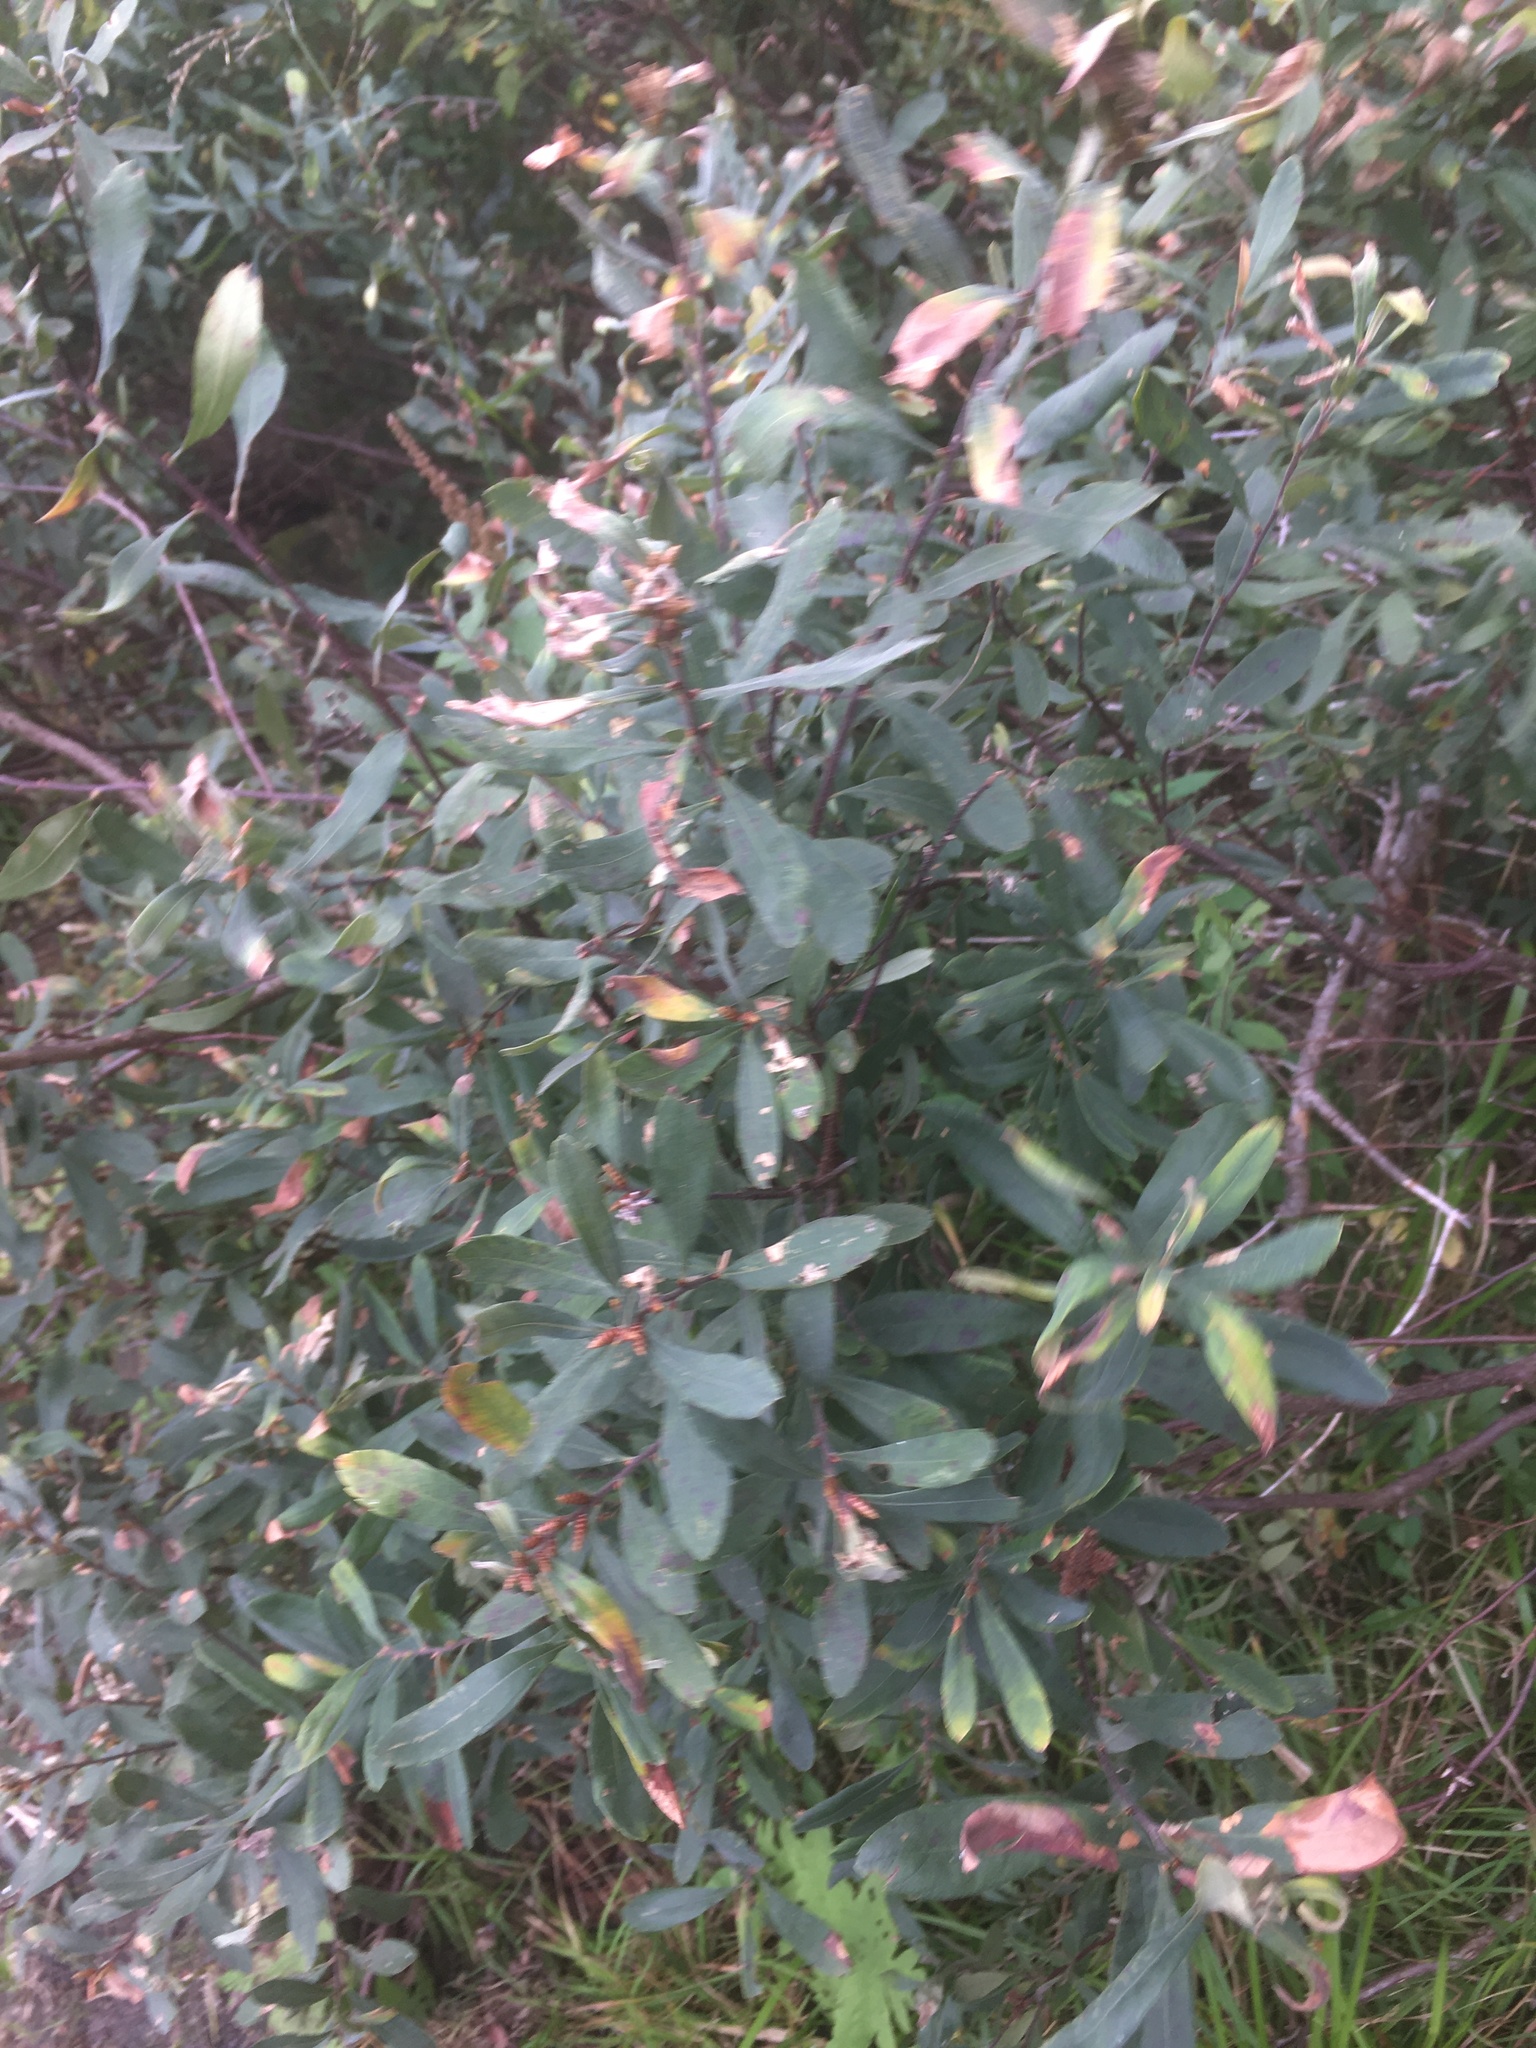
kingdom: Plantae
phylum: Tracheophyta
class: Magnoliopsida
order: Fagales
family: Myricaceae
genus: Myrica
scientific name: Myrica gale
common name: Sweet gale
